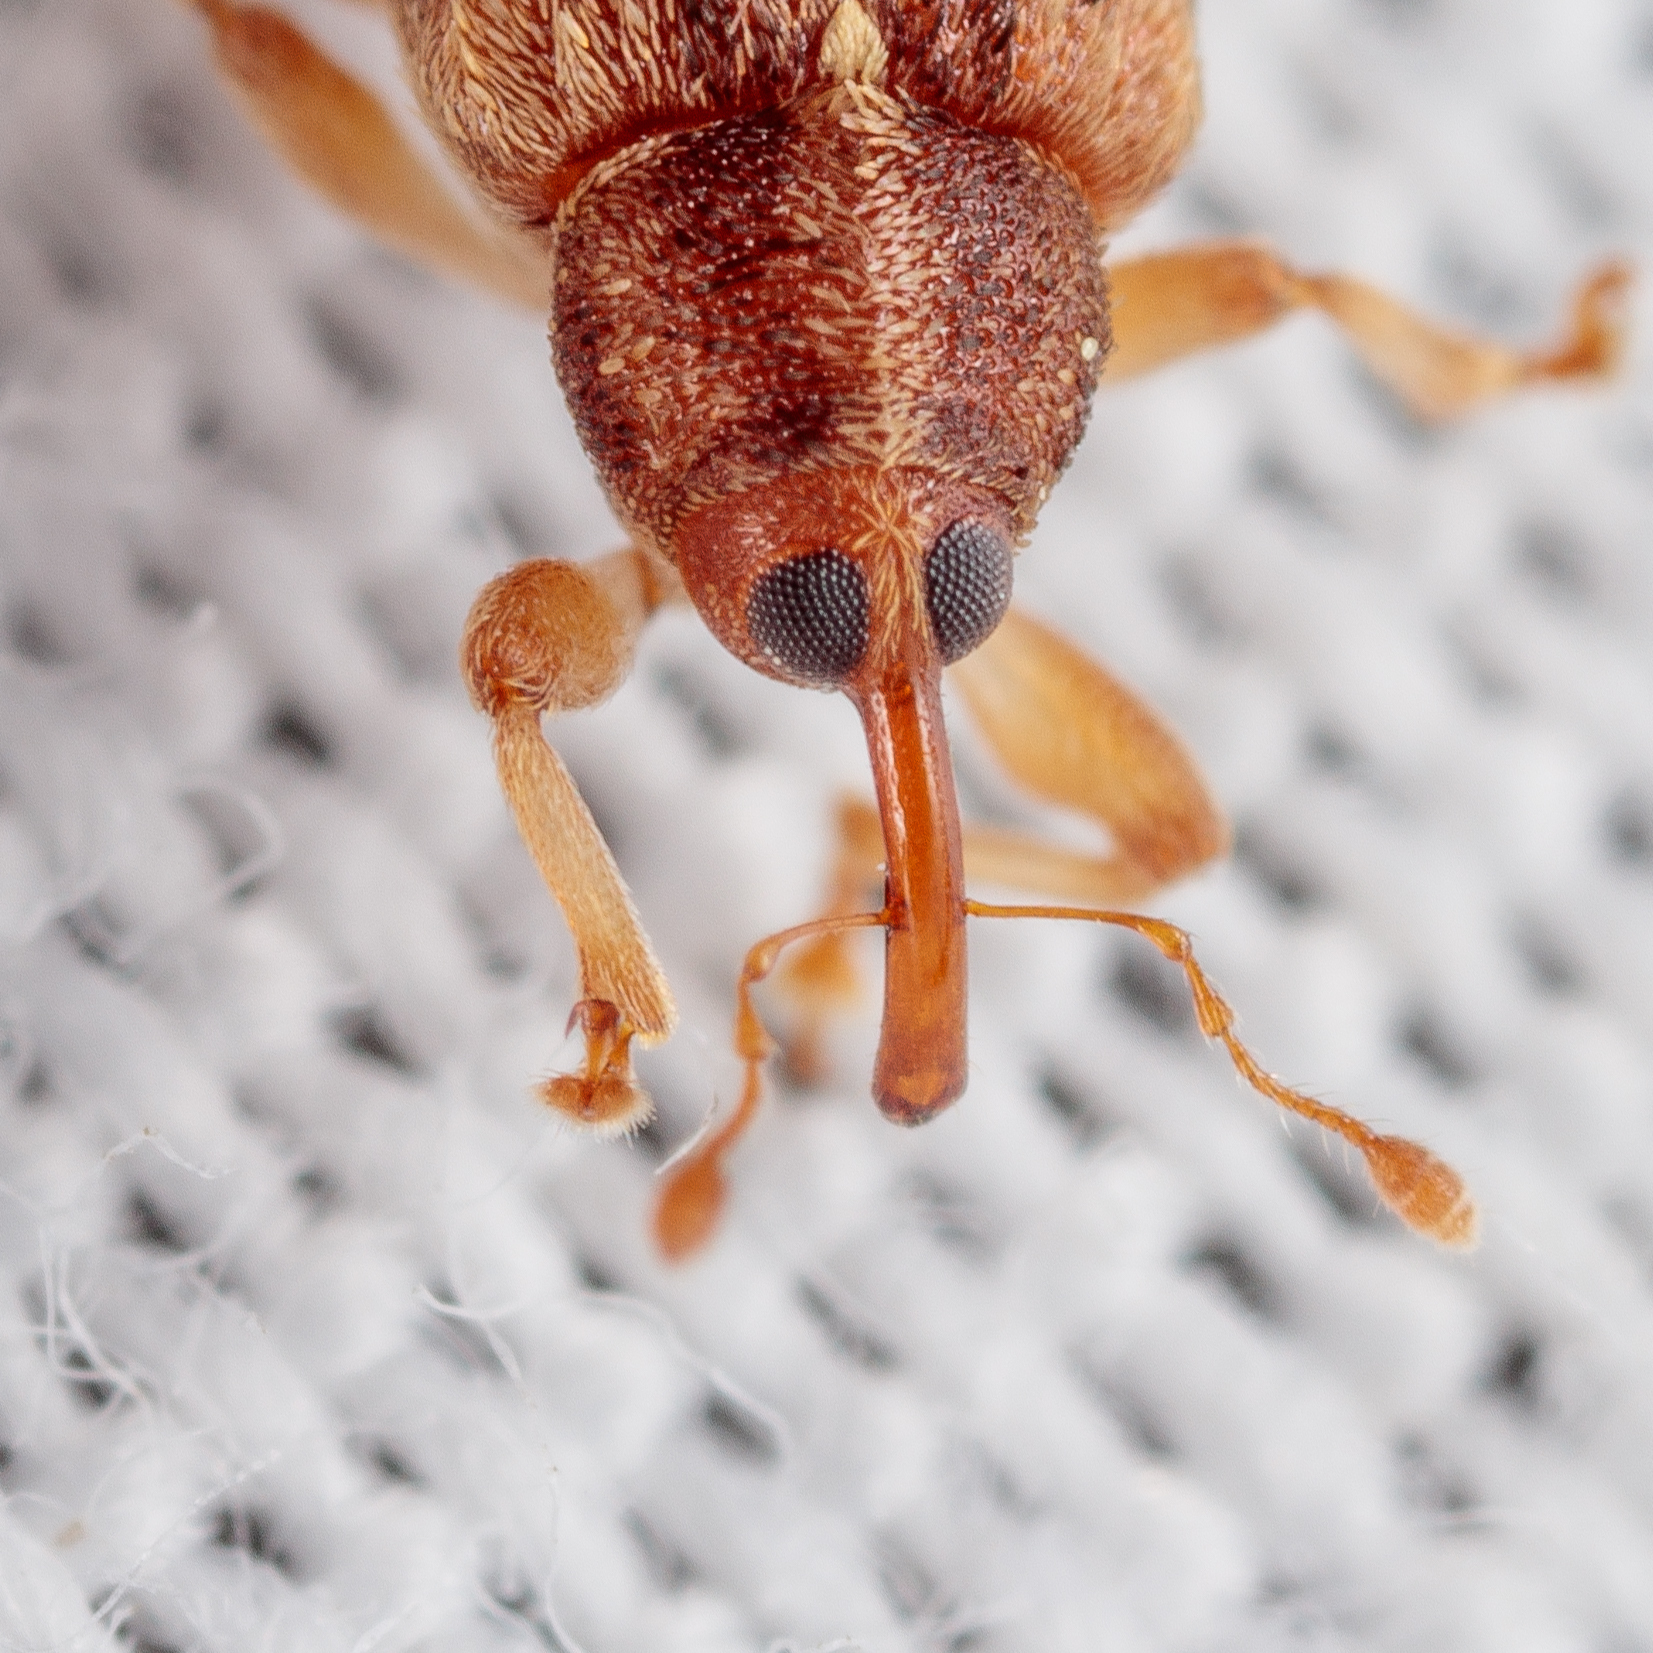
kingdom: Animalia
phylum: Arthropoda
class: Insecta
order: Coleoptera
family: Curculionidae
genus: Lignyodes
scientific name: Lignyodes horridulus
